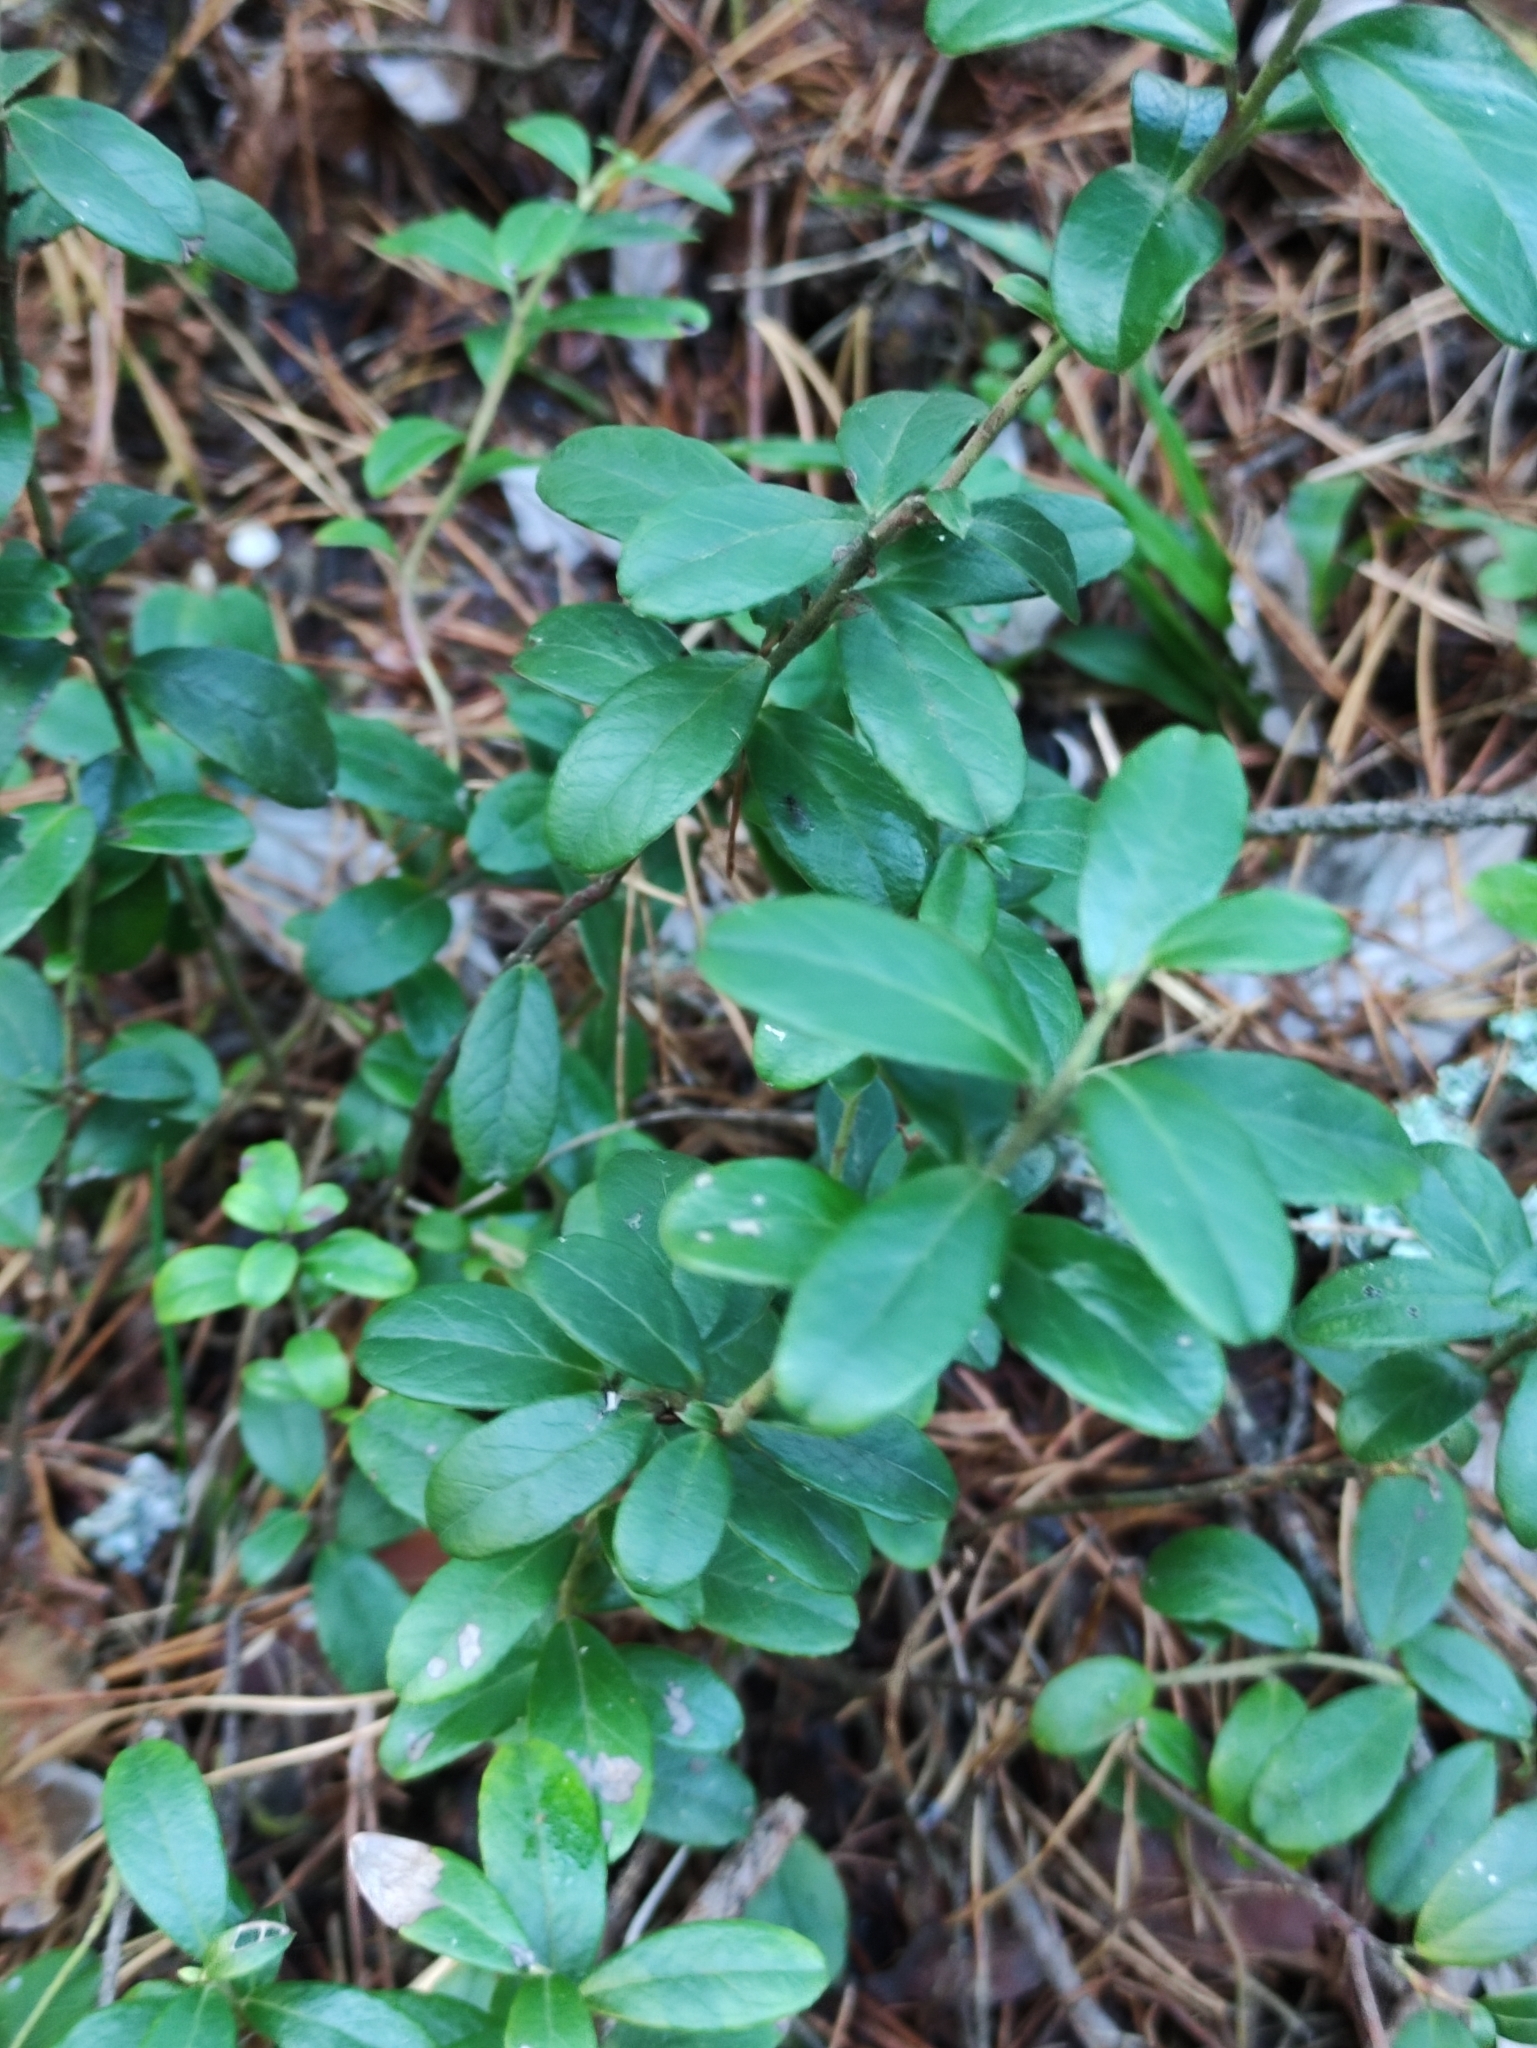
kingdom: Plantae
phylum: Tracheophyta
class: Magnoliopsida
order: Ericales
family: Ericaceae
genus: Vaccinium
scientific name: Vaccinium vitis-idaea
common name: Cowberry
